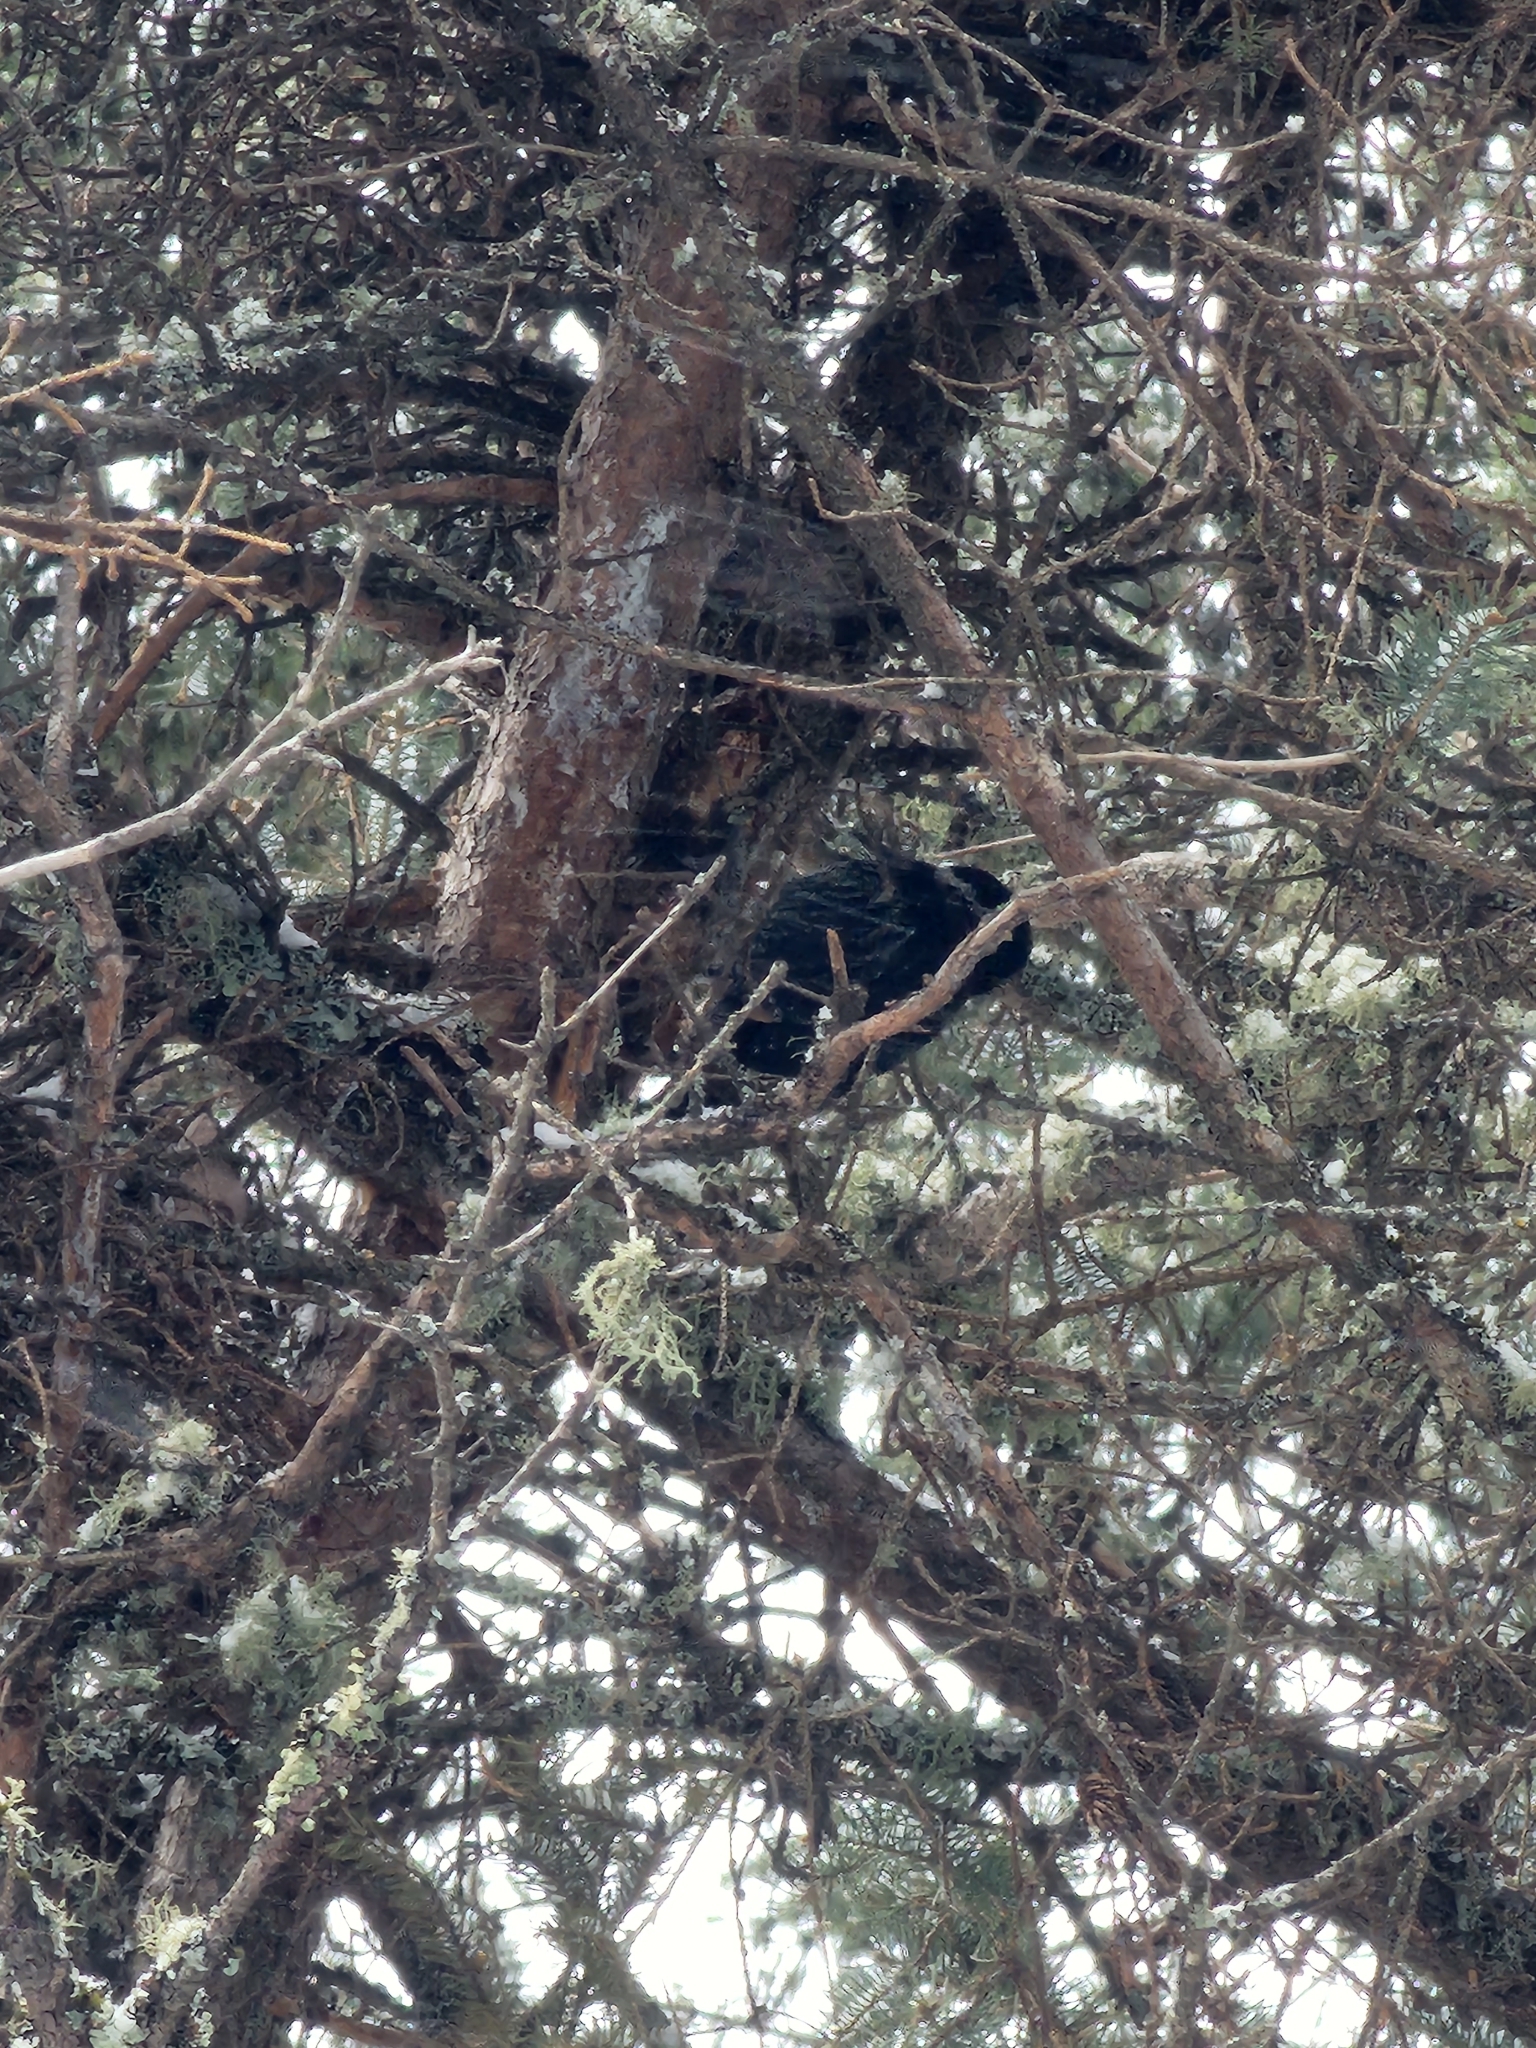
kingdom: Animalia
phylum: Chordata
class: Aves
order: Piciformes
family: Picidae
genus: Picoides
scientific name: Picoides arcticus
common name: Black-backed woodpecker
